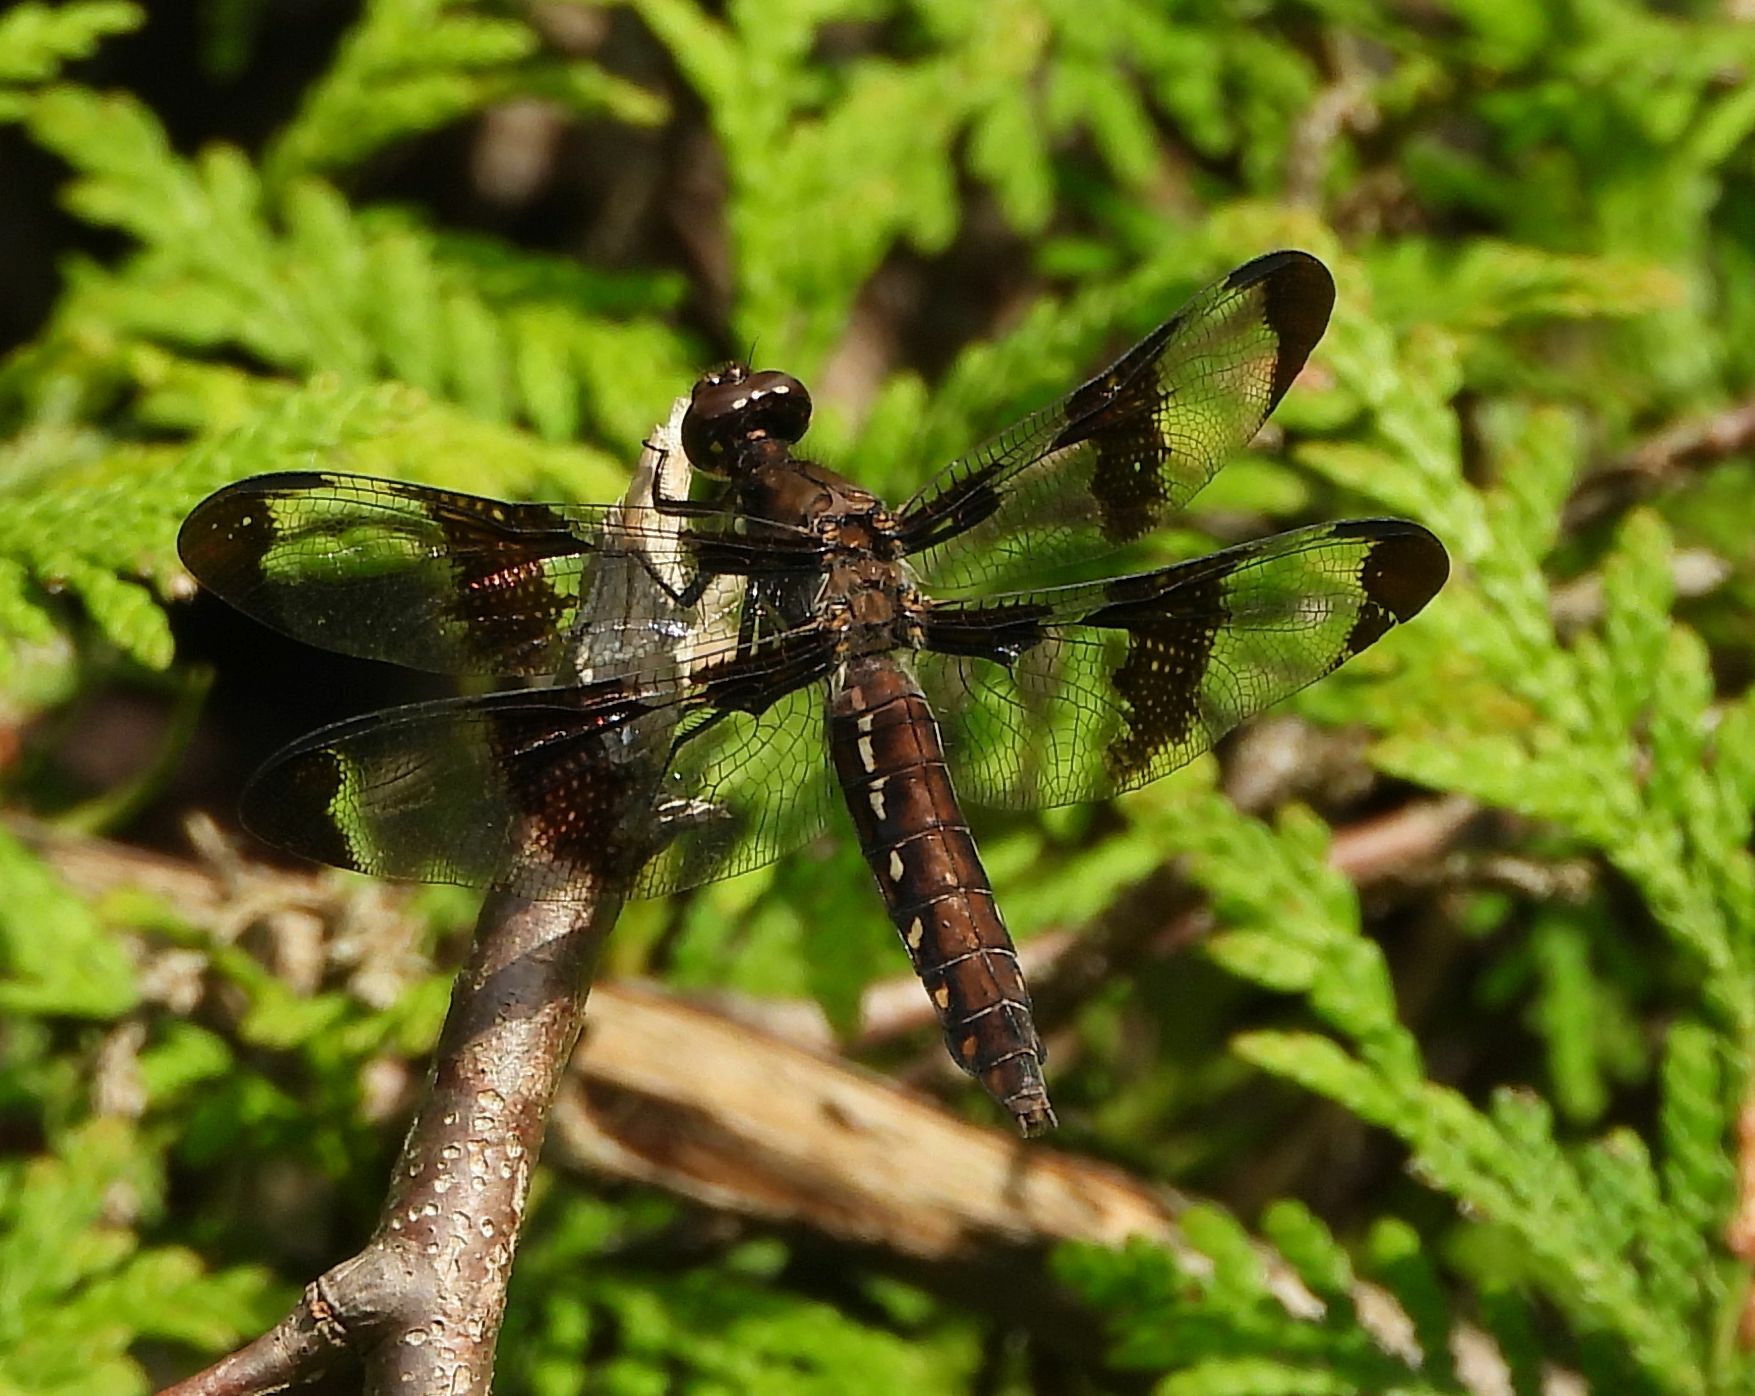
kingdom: Animalia
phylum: Arthropoda
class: Insecta
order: Odonata
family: Libellulidae
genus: Plathemis
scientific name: Plathemis lydia
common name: Common whitetail
